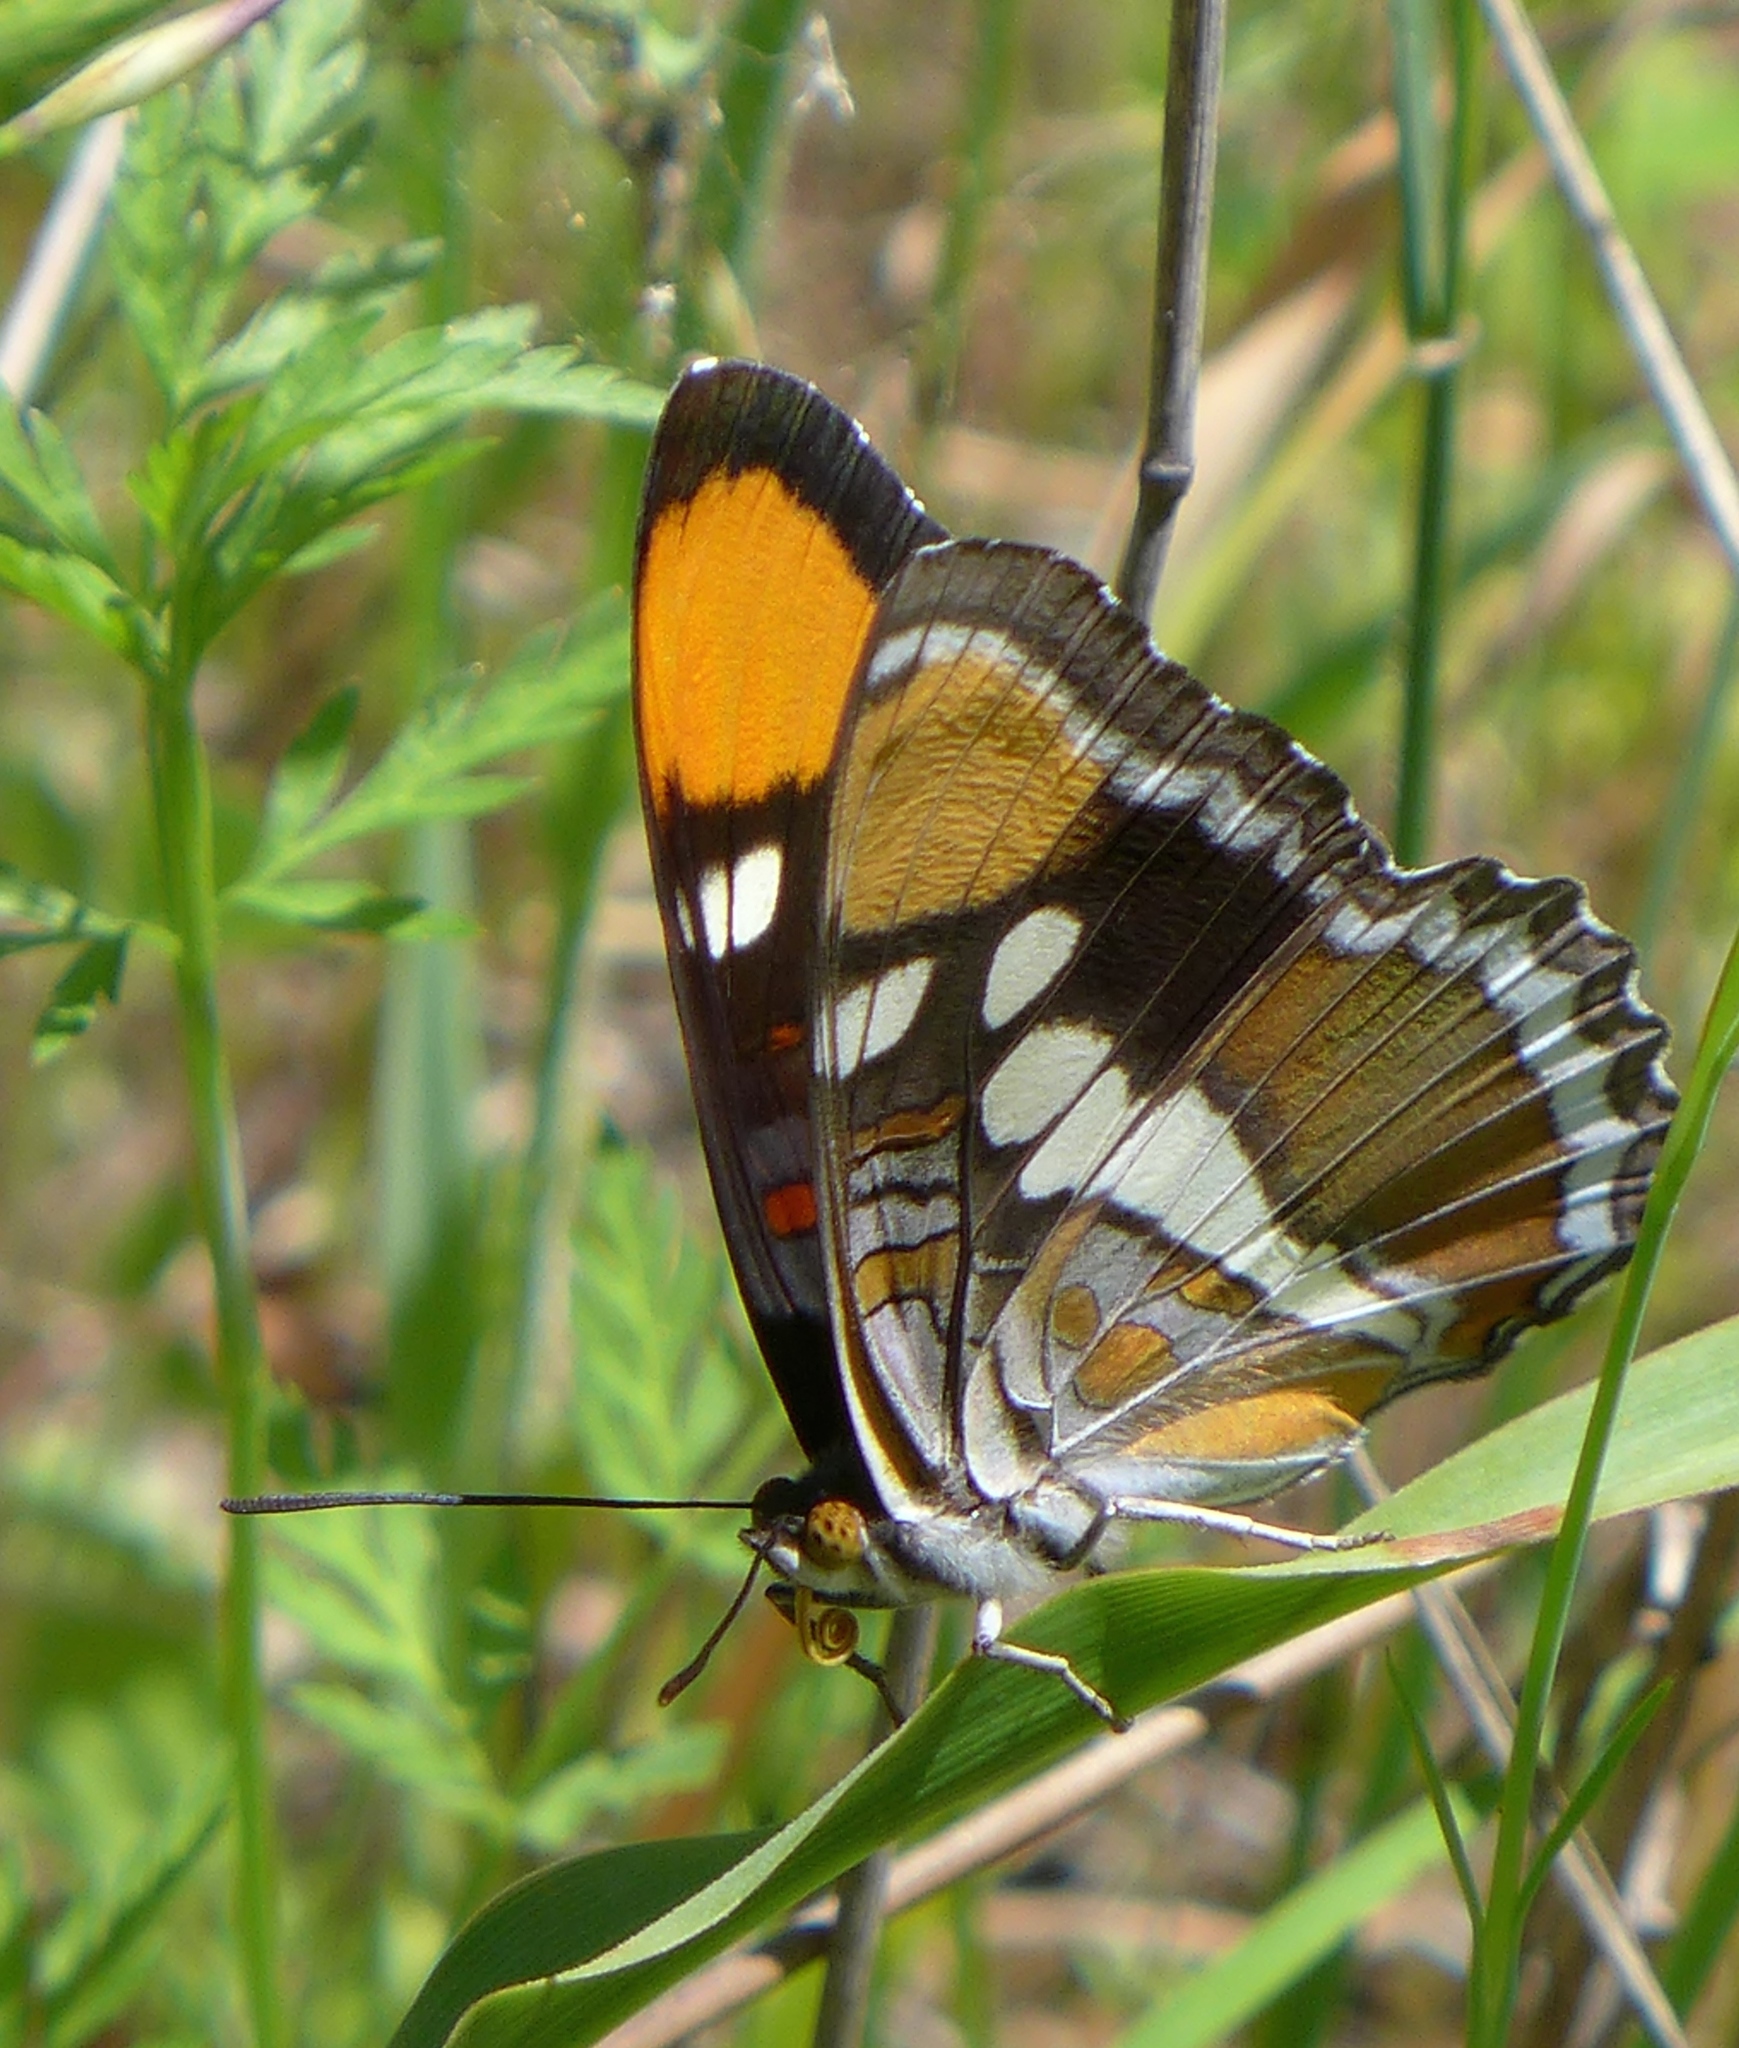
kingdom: Animalia
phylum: Arthropoda
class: Insecta
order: Lepidoptera
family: Nymphalidae
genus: Limenitis
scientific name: Limenitis bredowii
